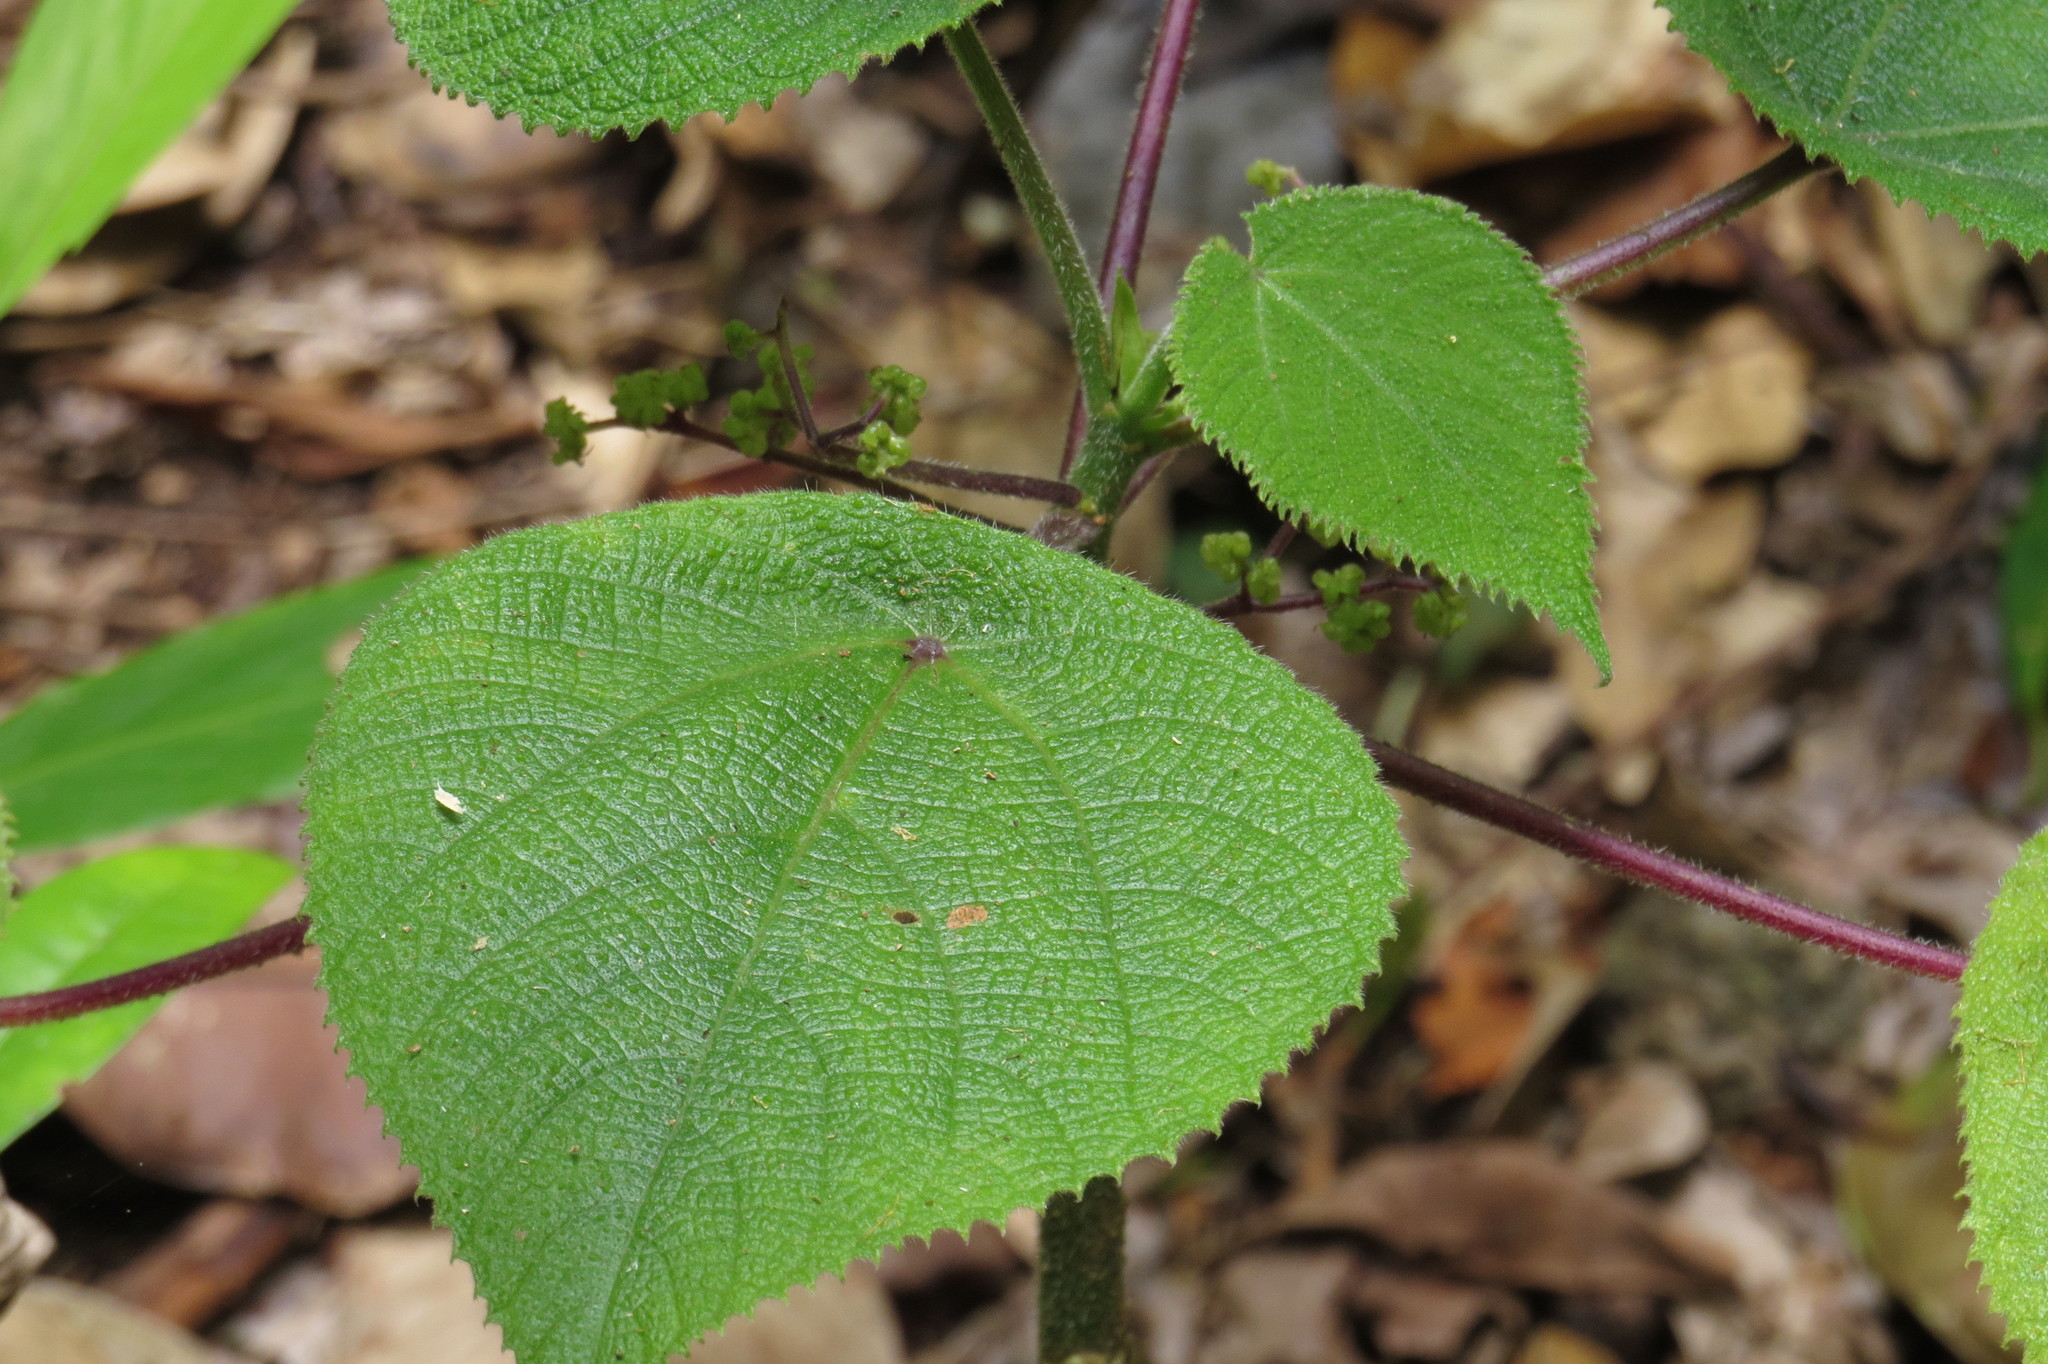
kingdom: Plantae
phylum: Tracheophyta
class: Magnoliopsida
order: Rosales
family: Urticaceae
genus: Dendrocnide
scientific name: Dendrocnide moroides
